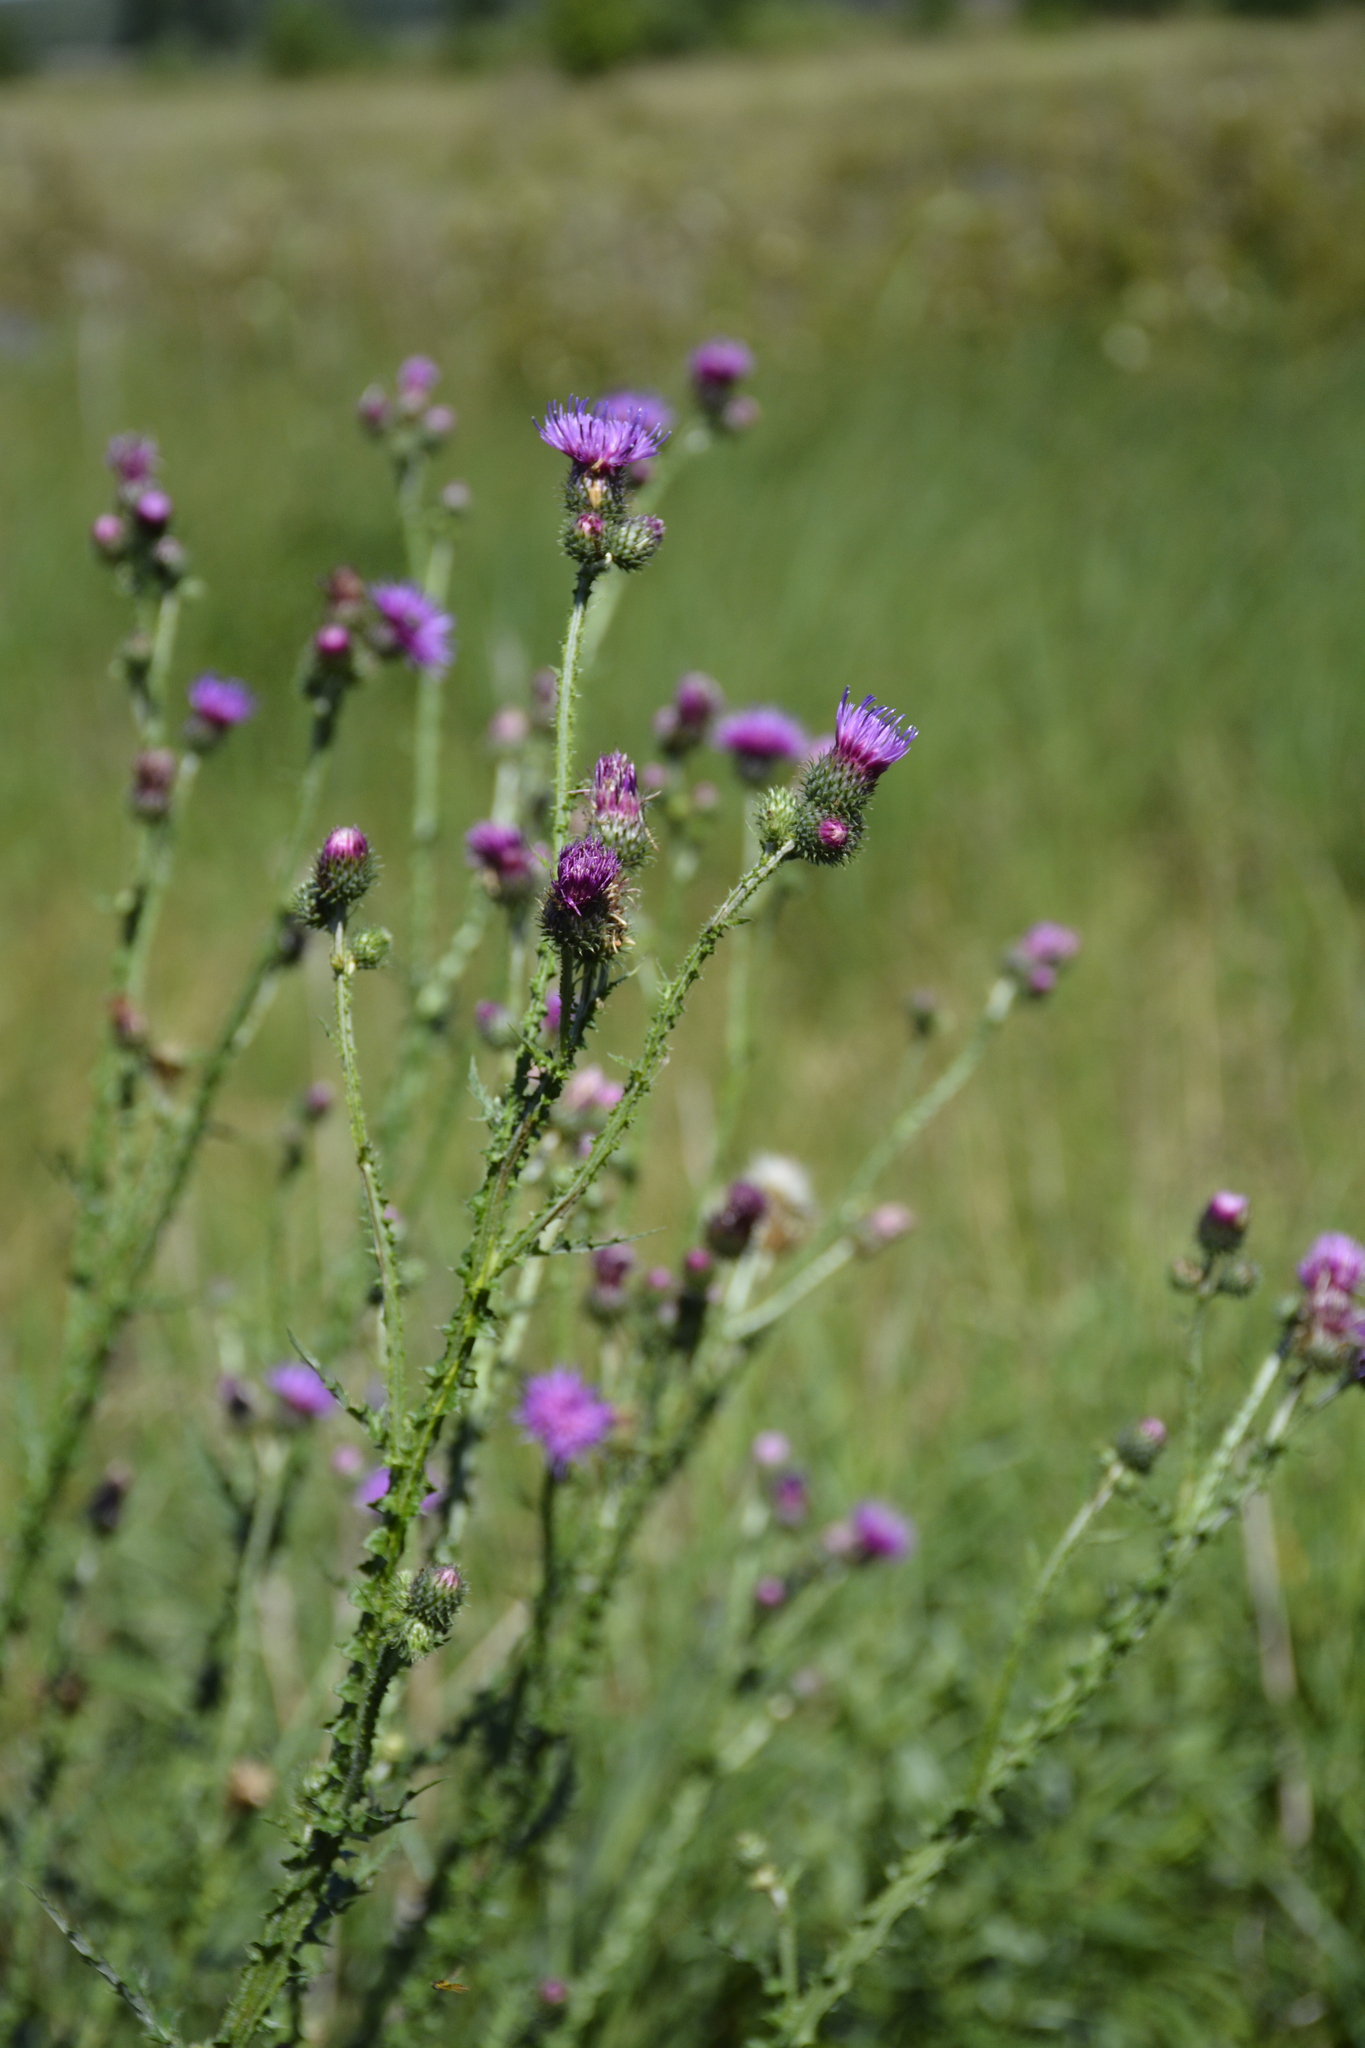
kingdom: Plantae
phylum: Tracheophyta
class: Magnoliopsida
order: Asterales
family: Asteraceae
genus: Carduus
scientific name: Carduus crispus
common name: Welted thistle
